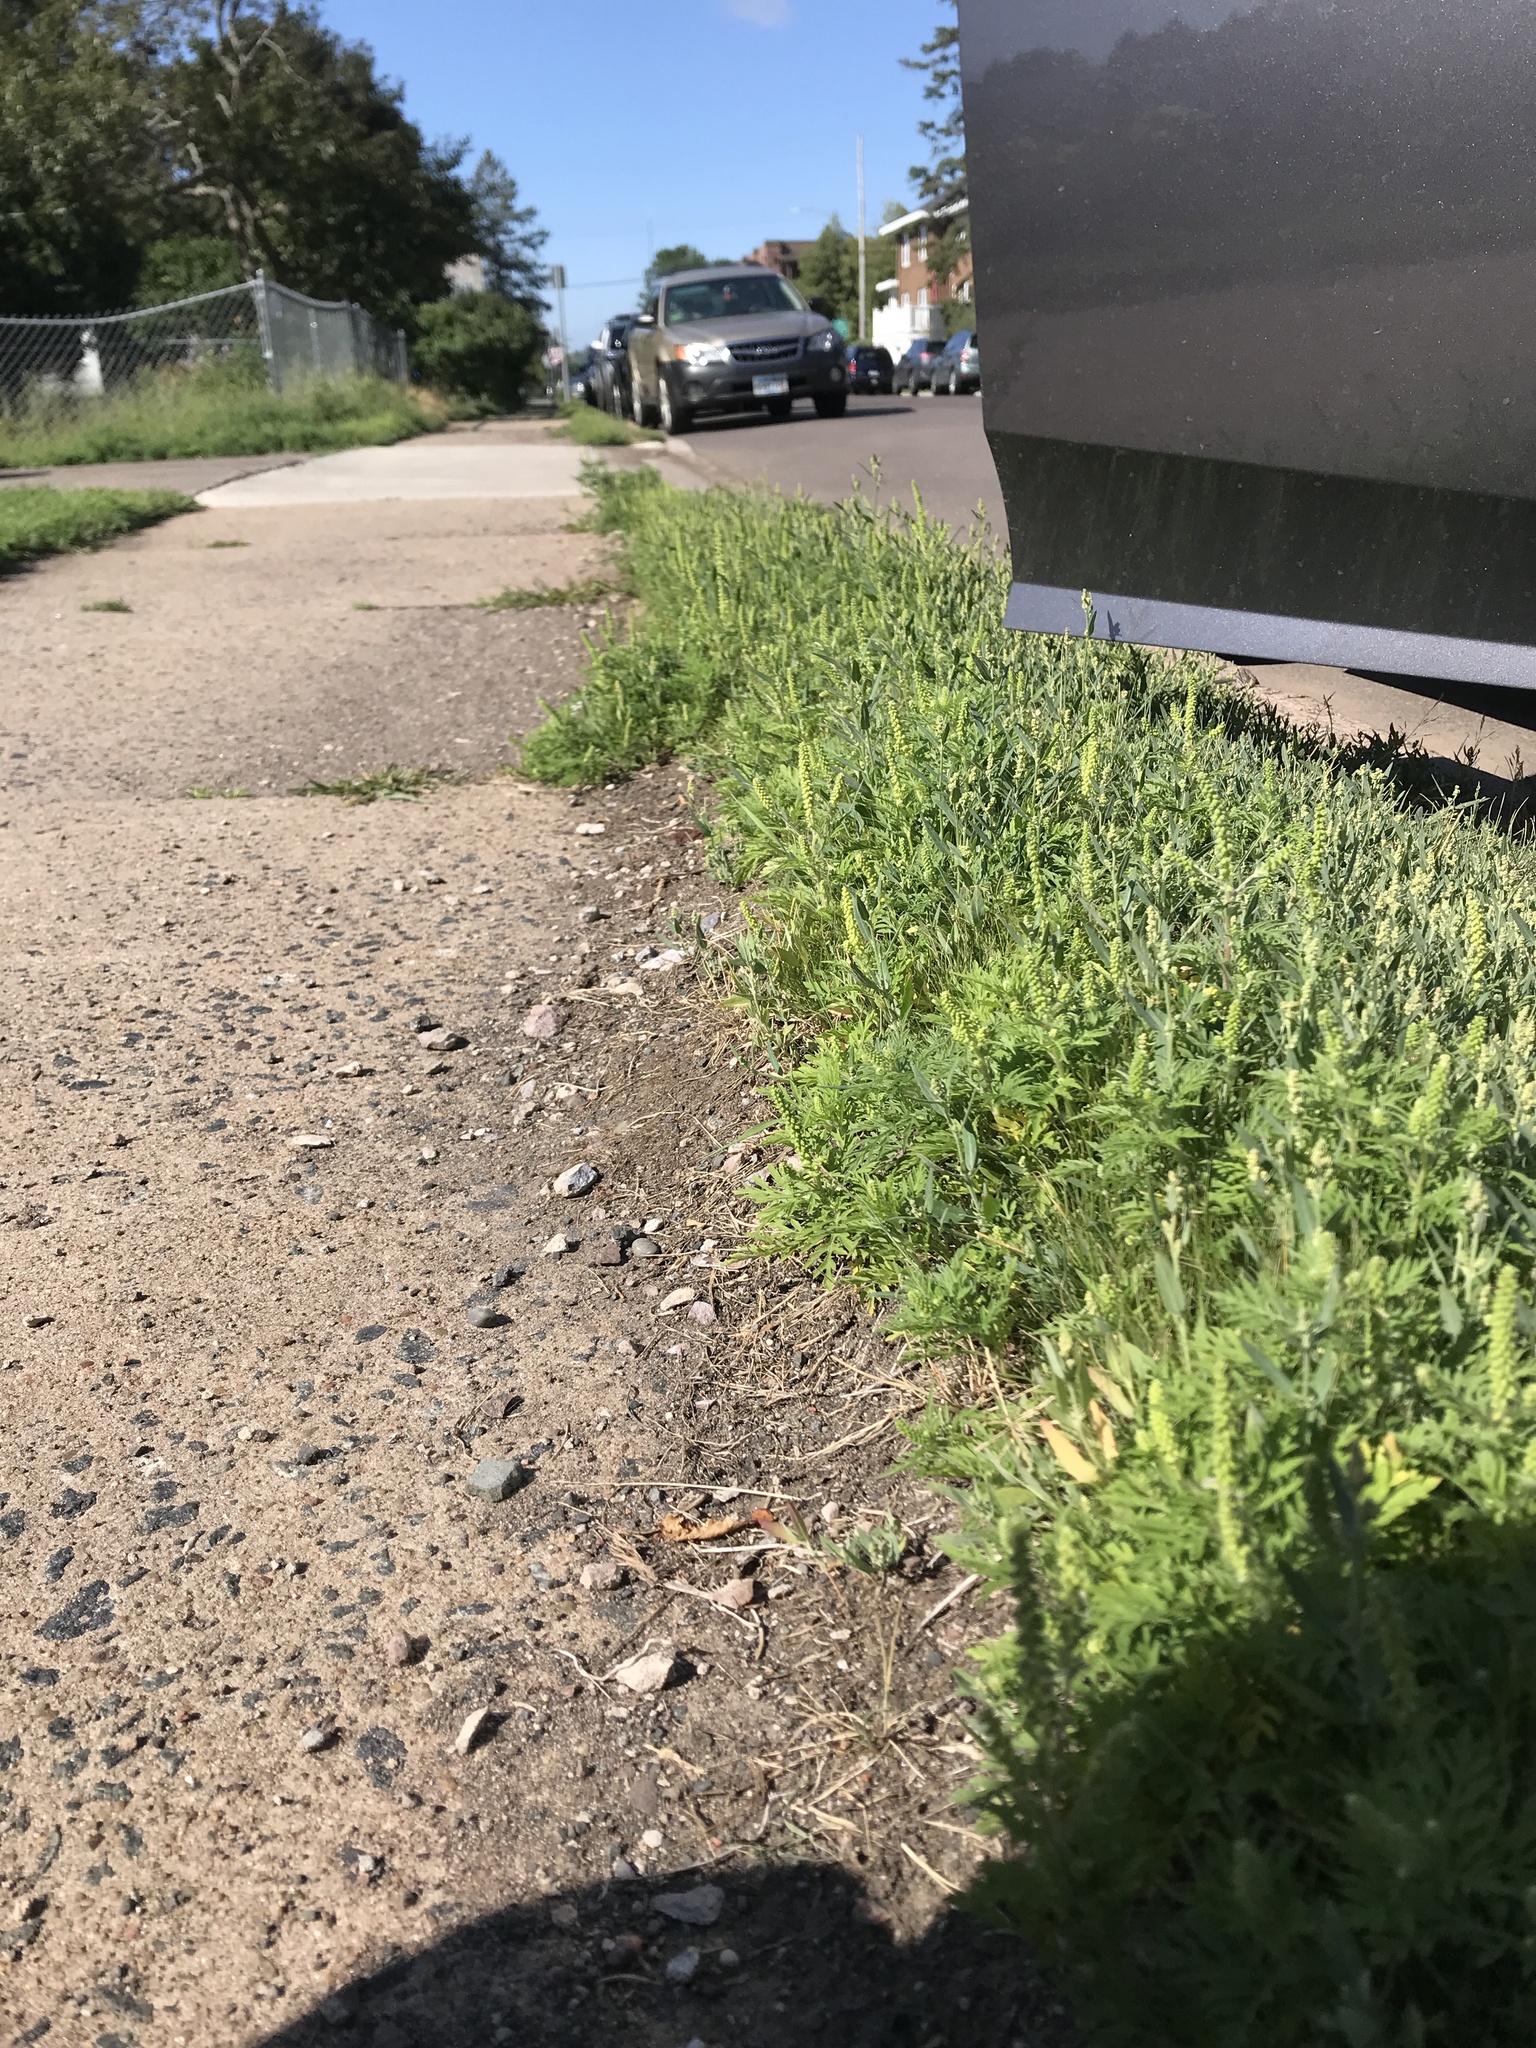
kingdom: Plantae
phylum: Tracheophyta
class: Magnoliopsida
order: Asterales
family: Asteraceae
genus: Ambrosia
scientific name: Ambrosia artemisiifolia
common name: Annual ragweed
